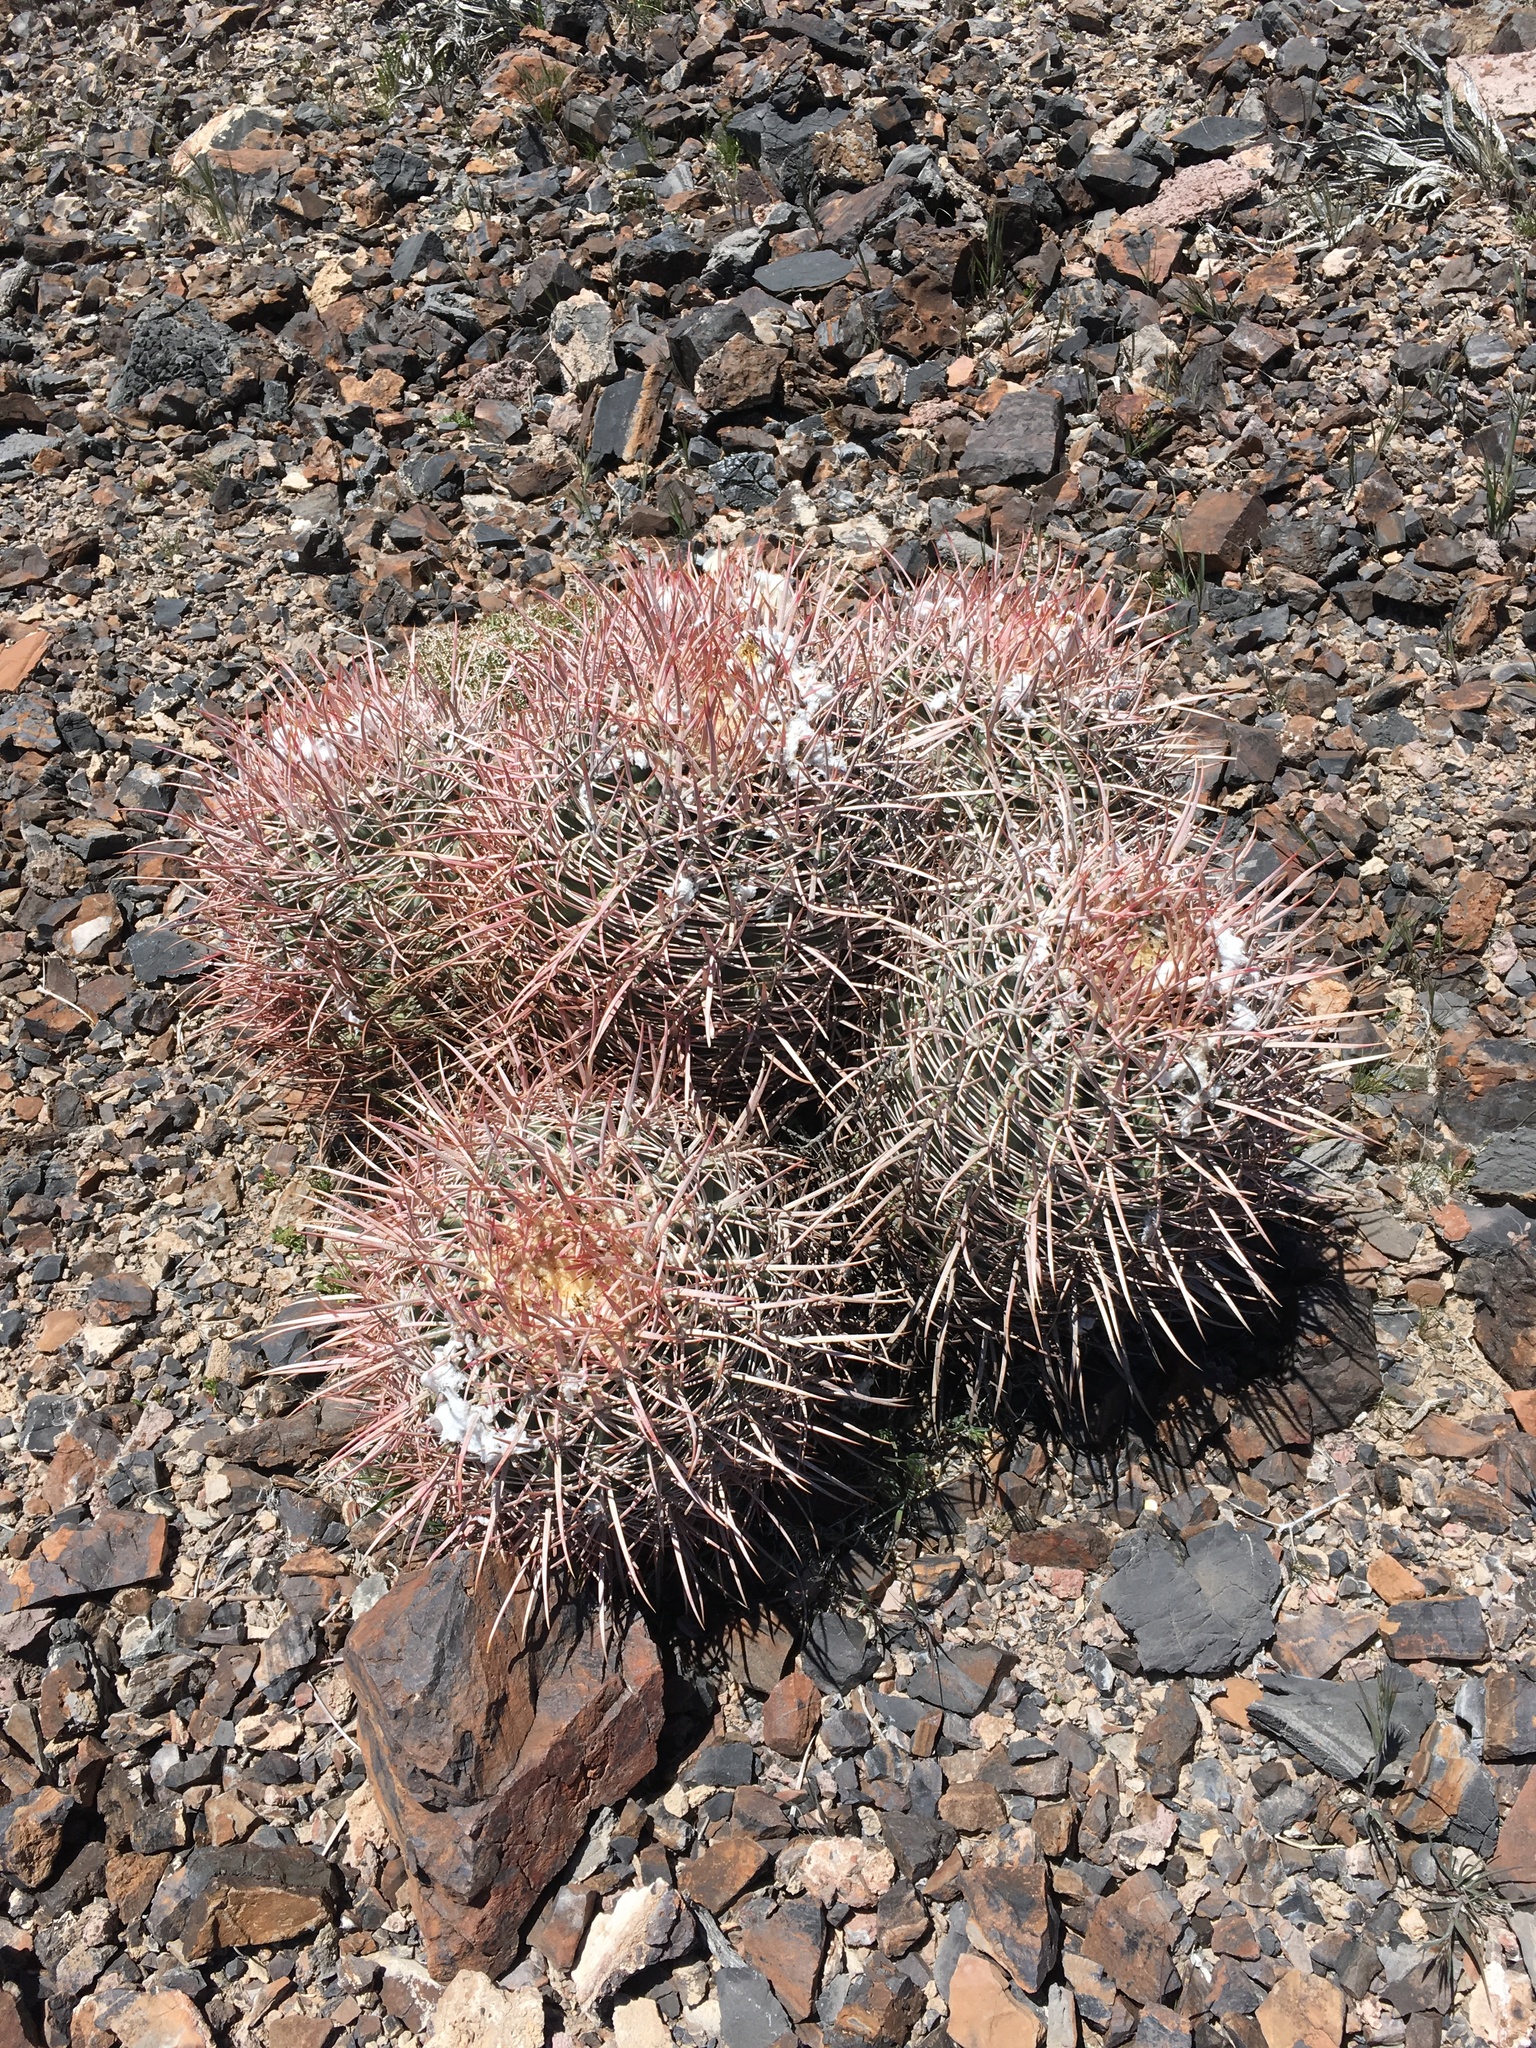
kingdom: Plantae
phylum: Tracheophyta
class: Magnoliopsida
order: Caryophyllales
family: Cactaceae
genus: Echinocactus
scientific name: Echinocactus polycephalus
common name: Cottontop cactus
